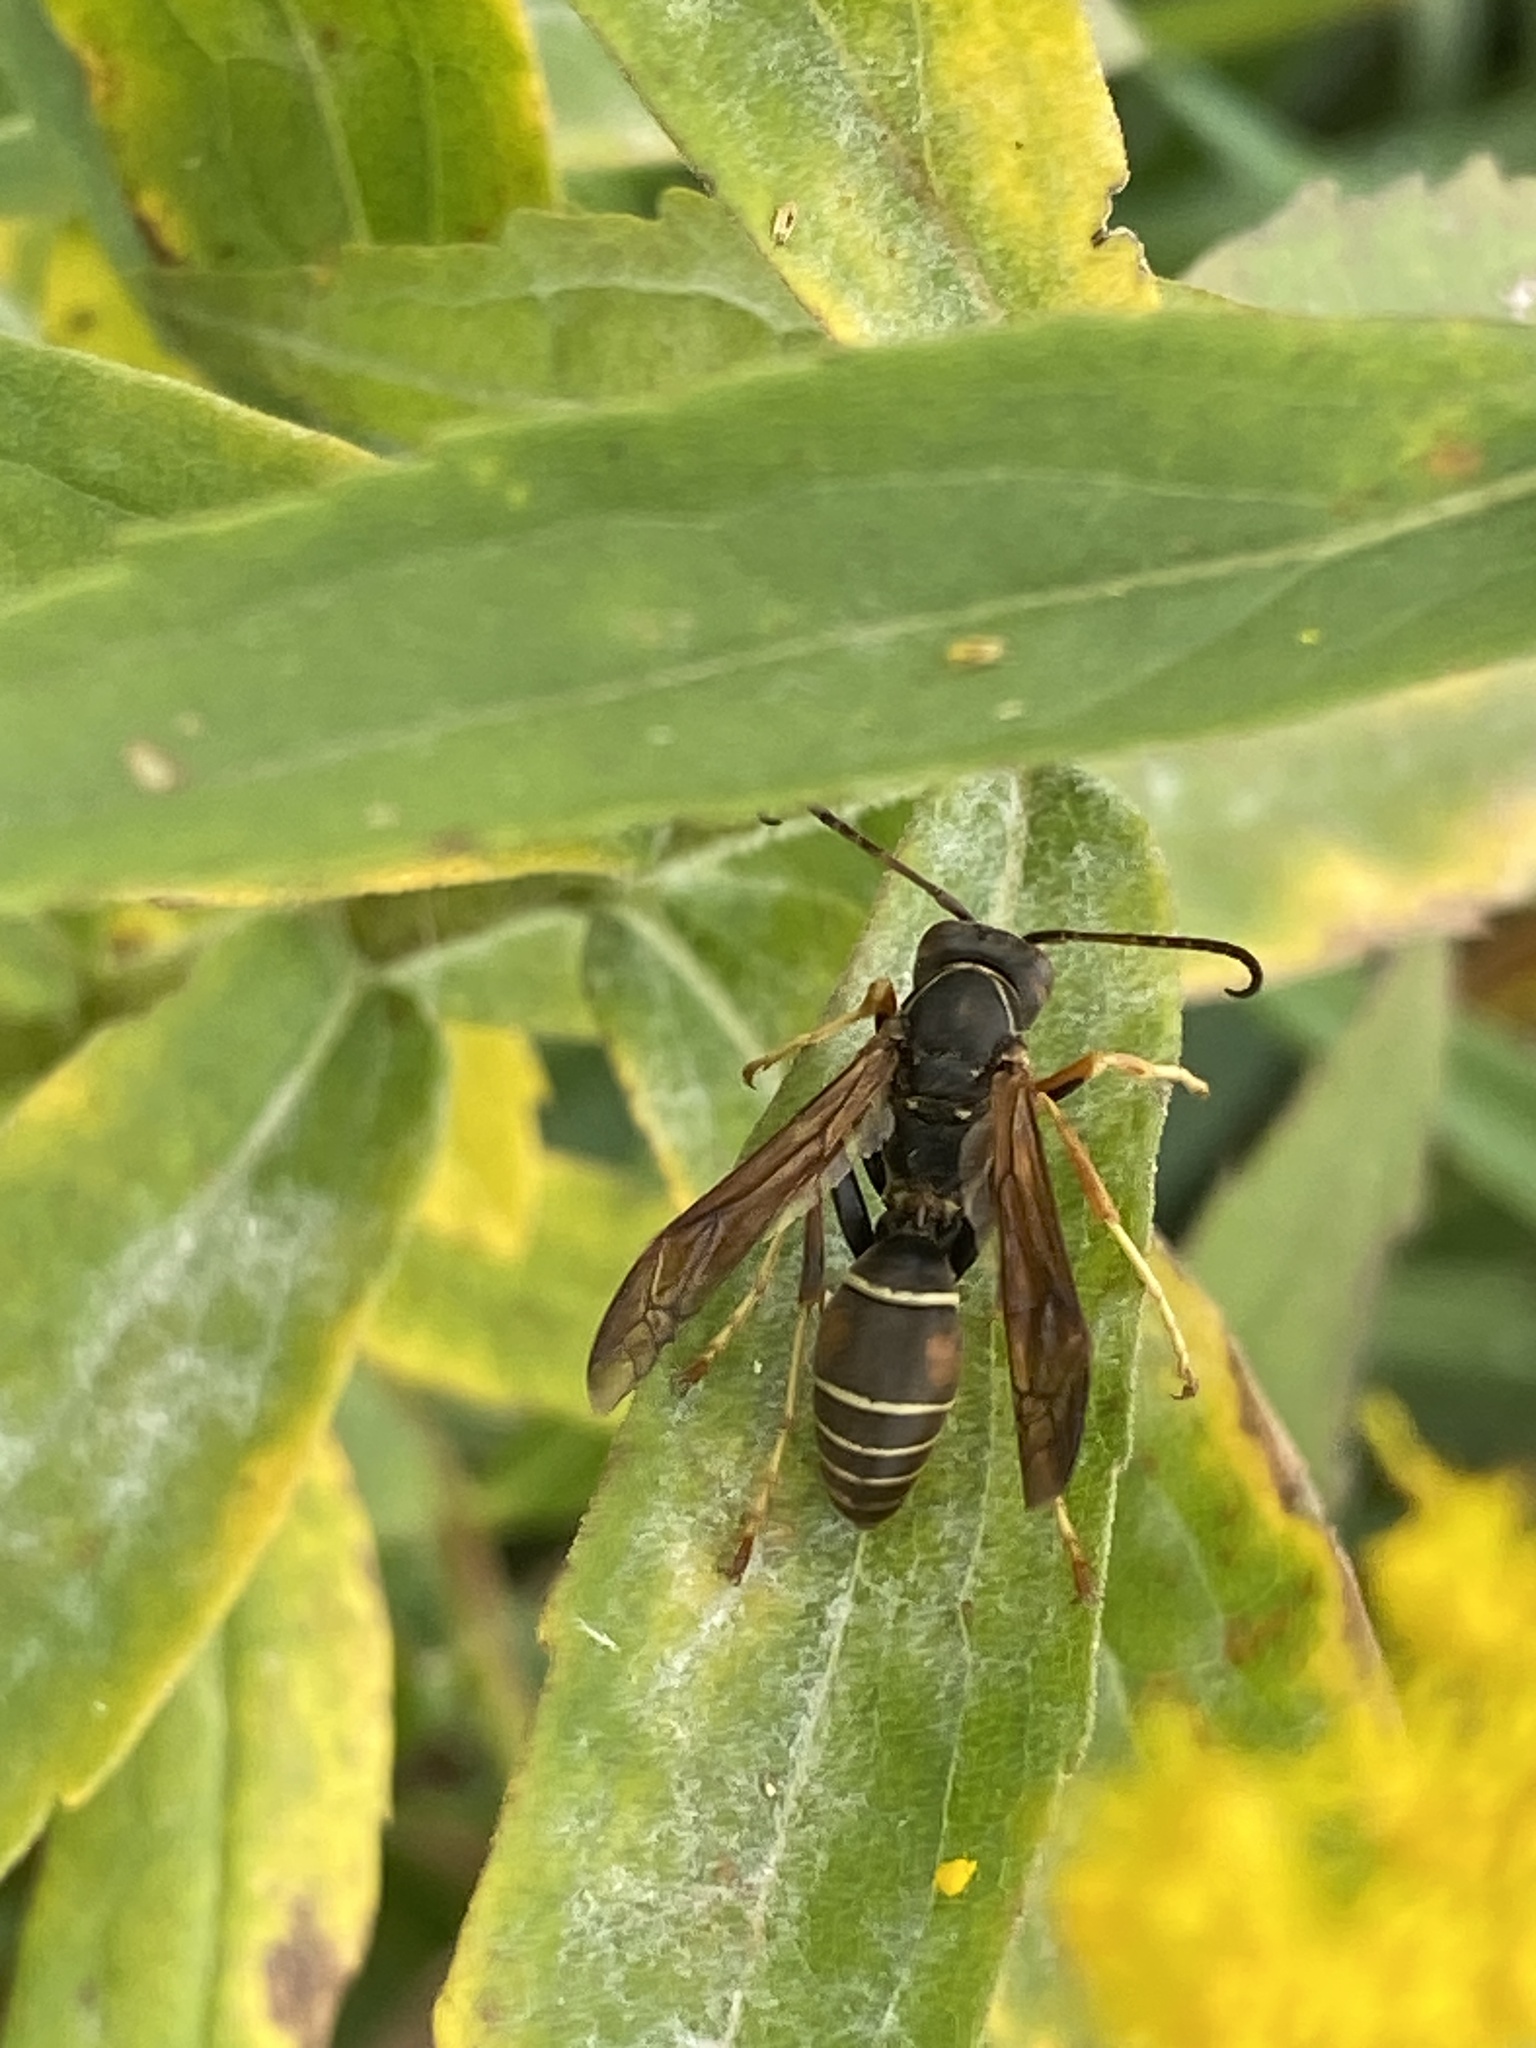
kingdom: Animalia
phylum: Arthropoda
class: Insecta
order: Hymenoptera
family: Eumenidae
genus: Polistes
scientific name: Polistes fuscatus
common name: Dark paper wasp
